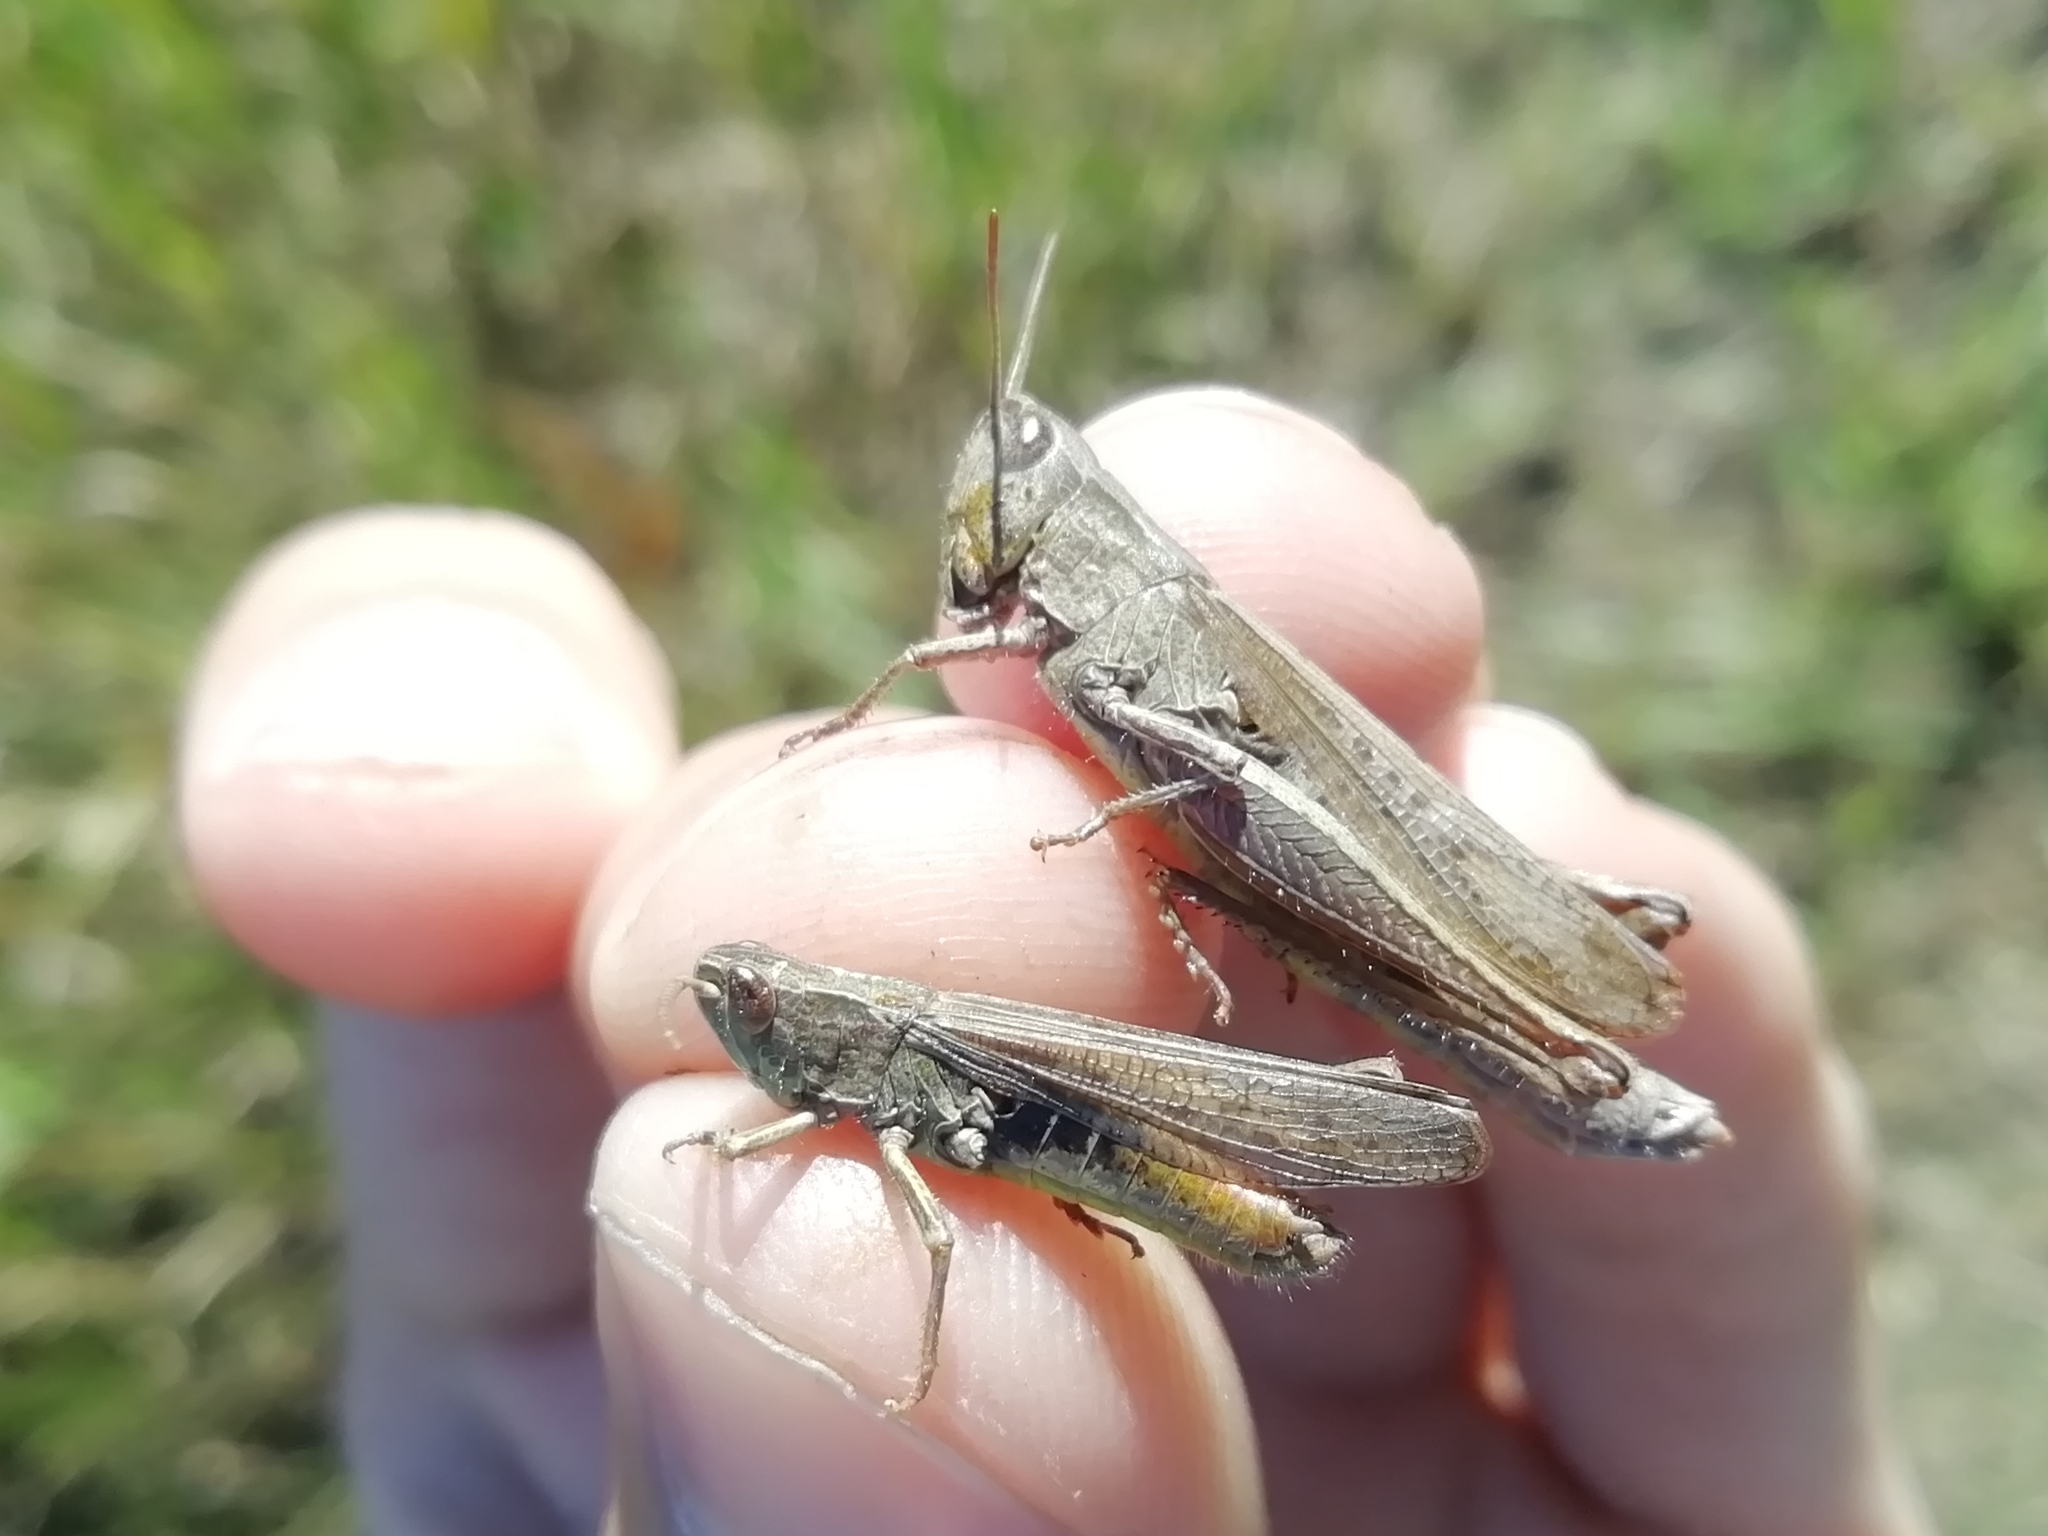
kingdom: Animalia
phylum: Arthropoda
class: Insecta
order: Orthoptera
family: Acrididae
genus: Chorthippus
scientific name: Chorthippus dorsatus
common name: Steppe grasshopper
